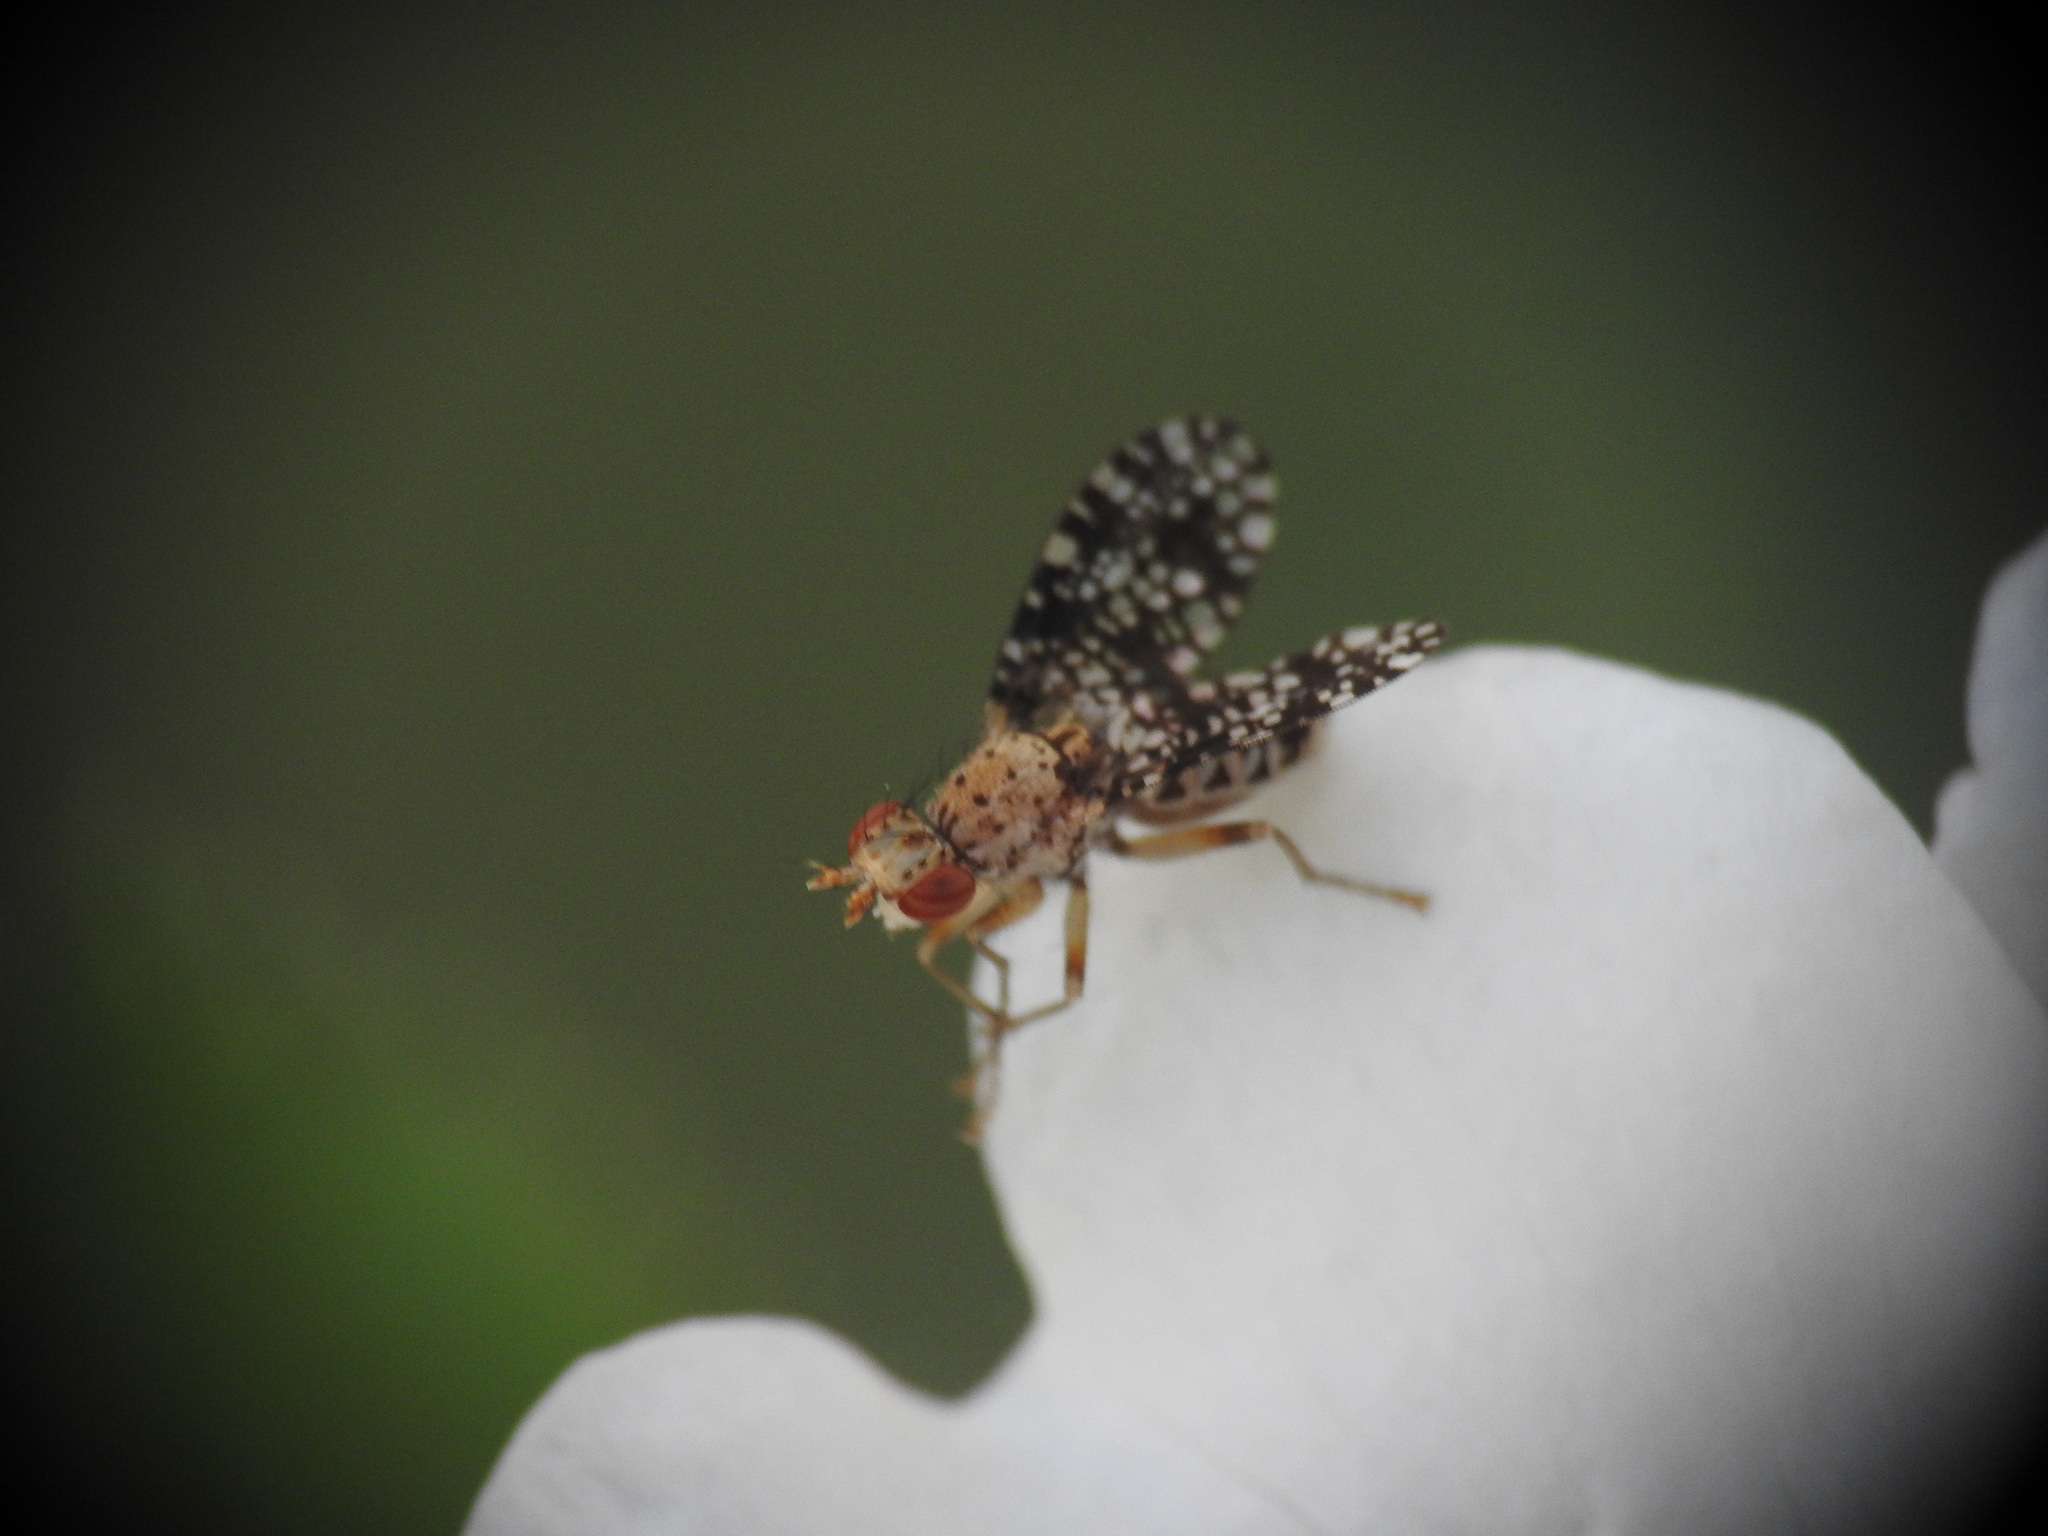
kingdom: Animalia
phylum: Arthropoda
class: Insecta
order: Diptera
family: Sciomyzidae
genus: Trypetoptera
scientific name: Trypetoptera punctulata
